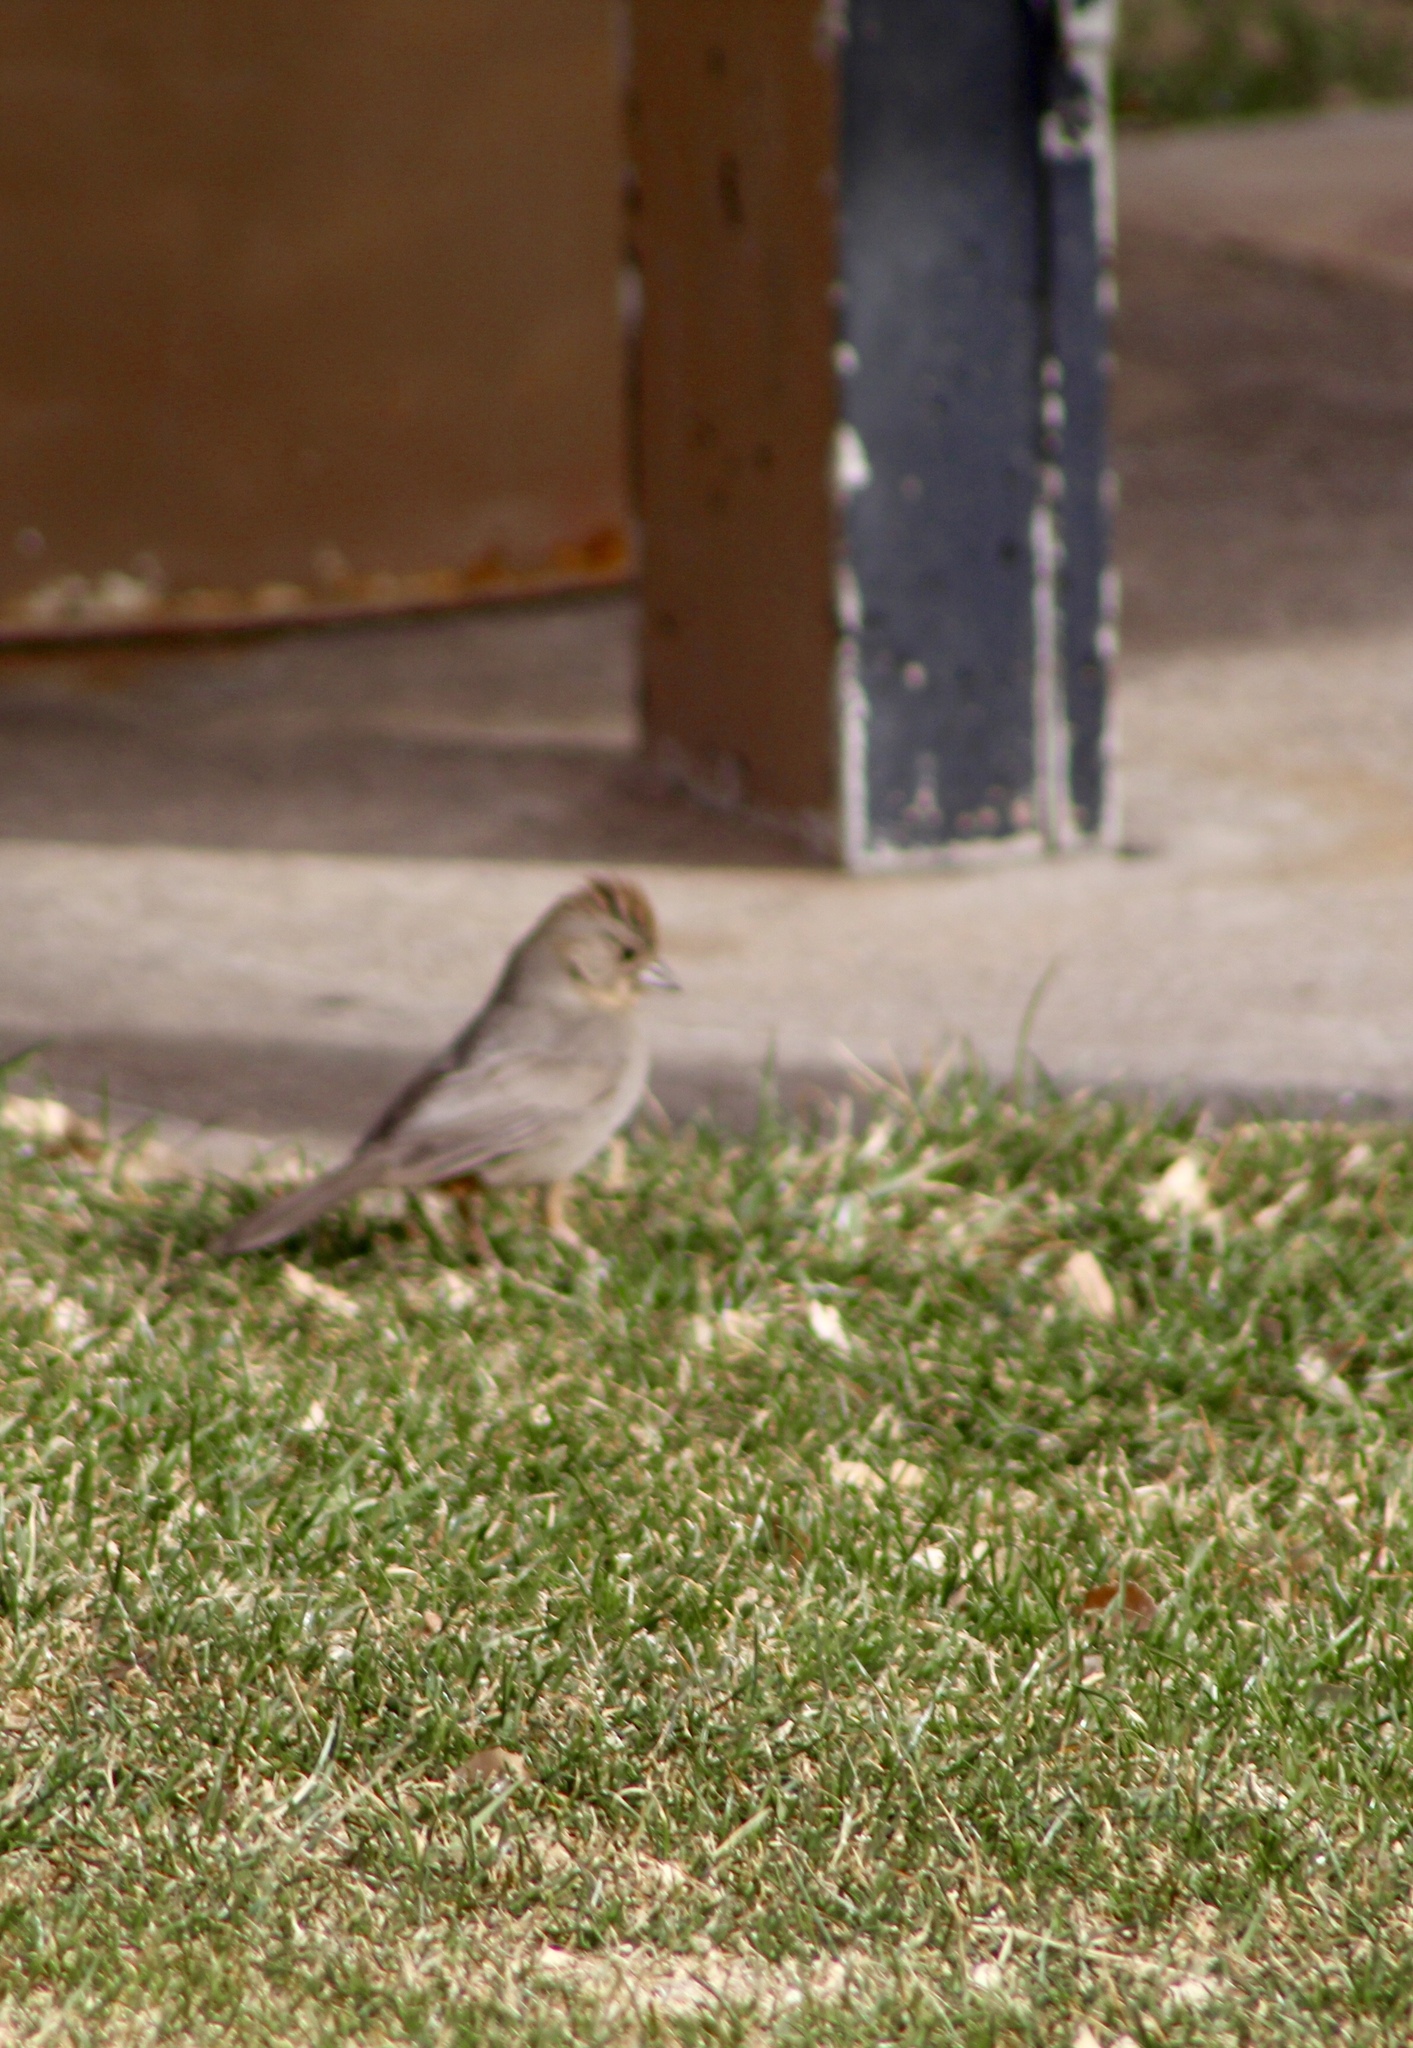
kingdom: Animalia
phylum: Chordata
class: Aves
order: Passeriformes
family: Passerellidae
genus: Melozone
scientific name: Melozone fusca
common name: Canyon towhee
